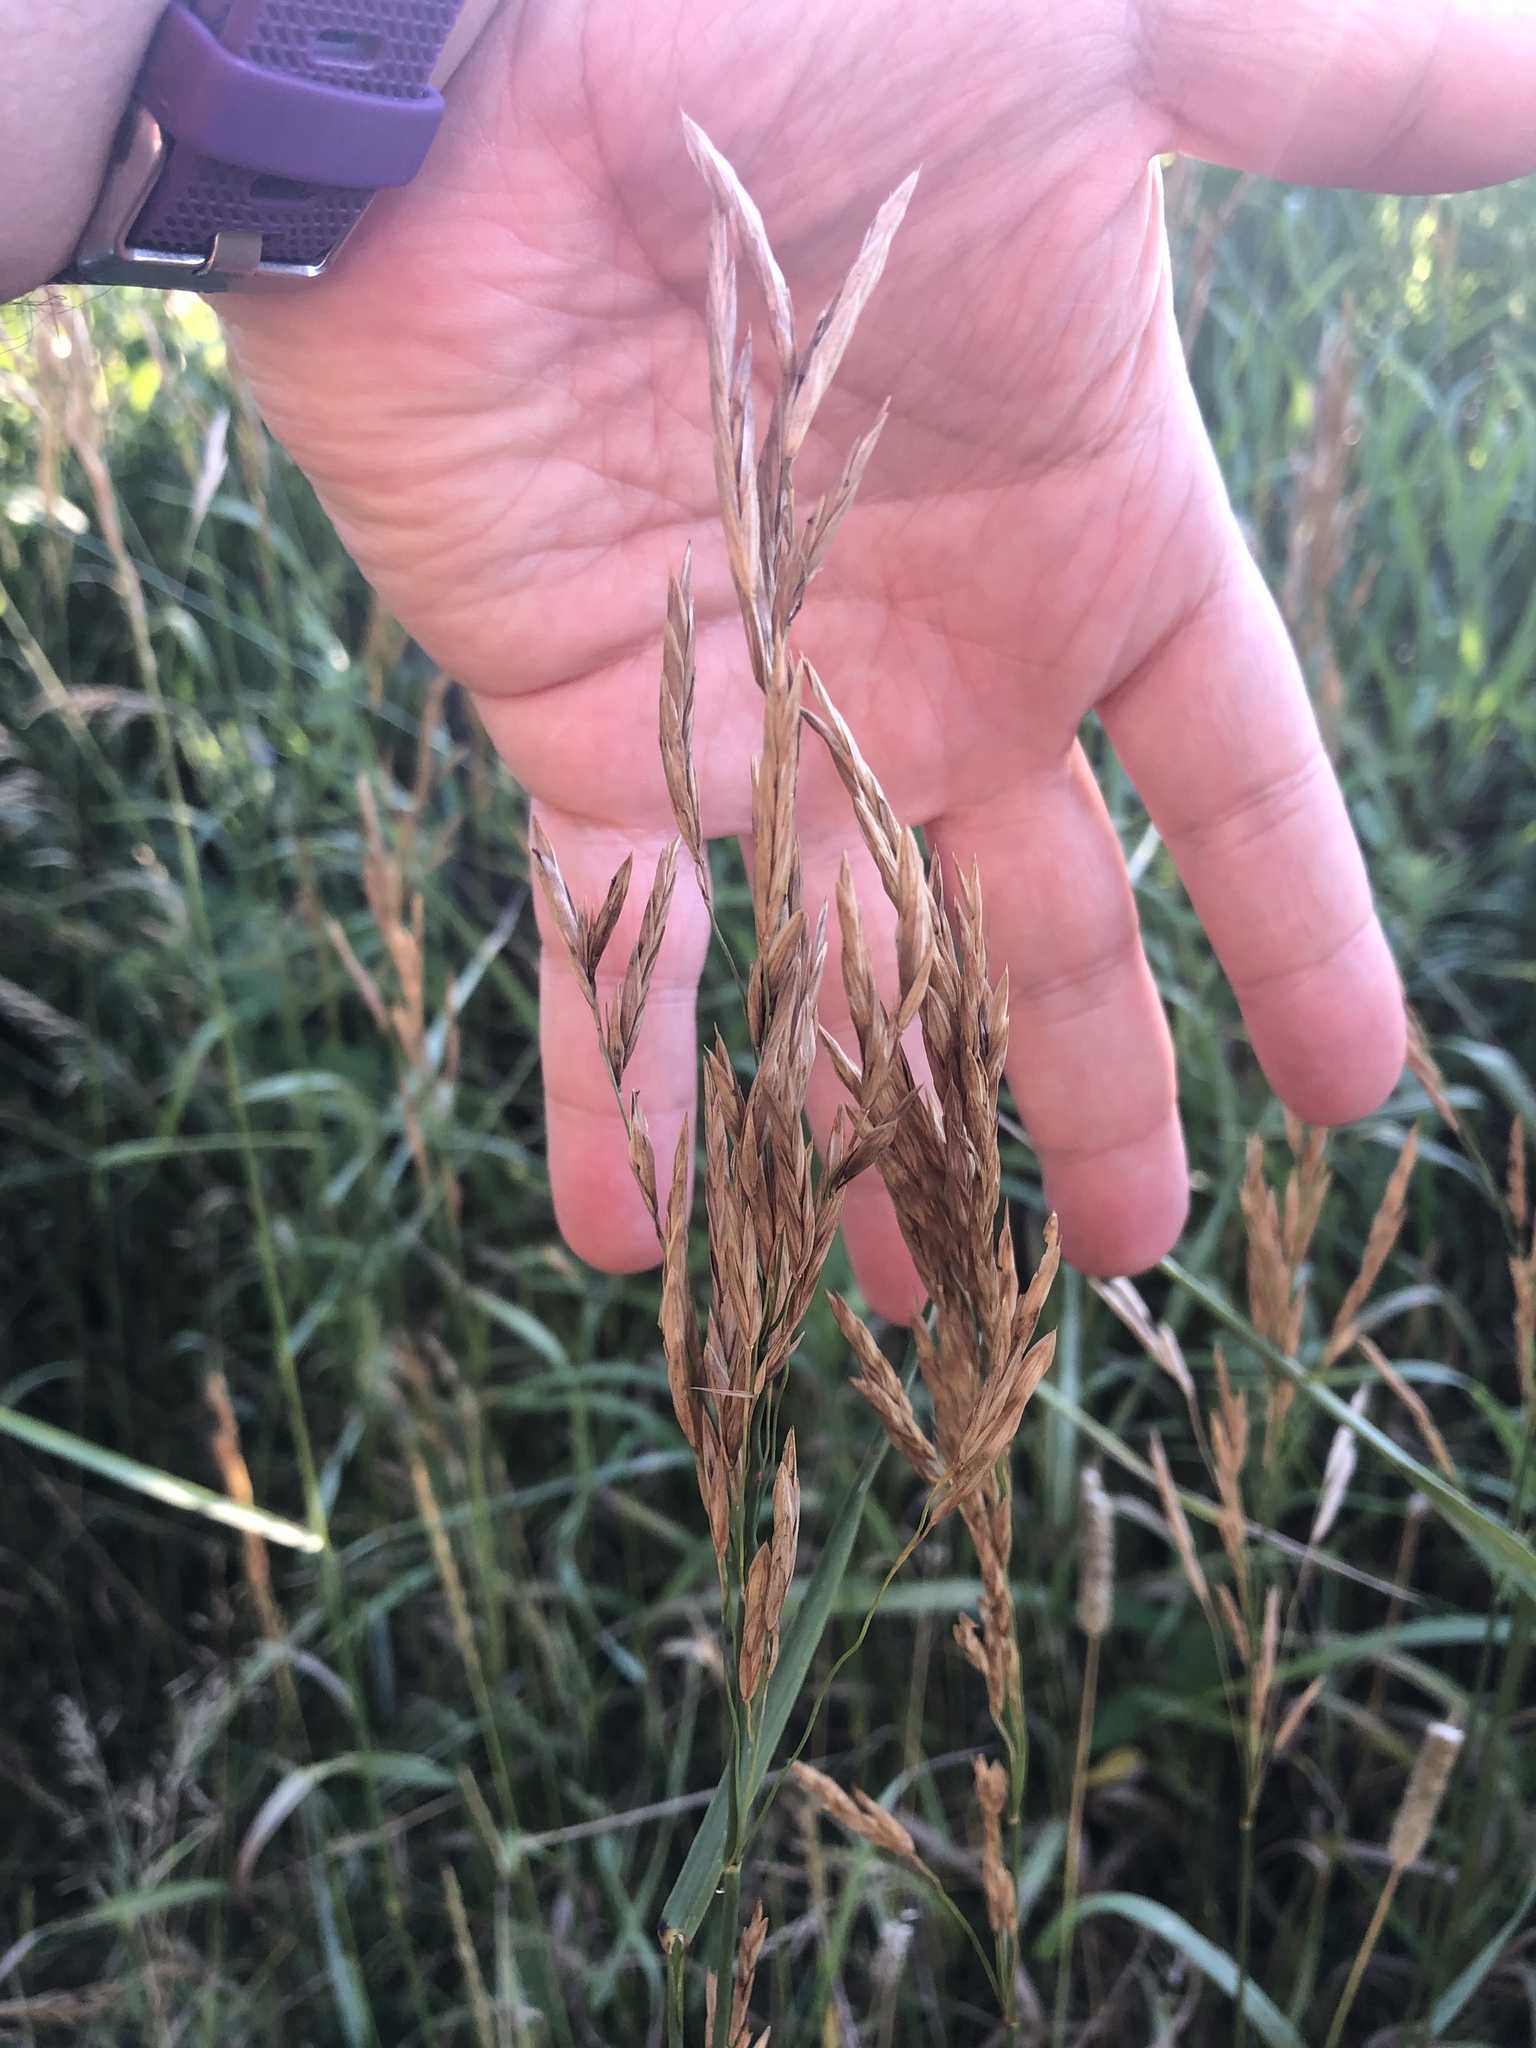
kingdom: Plantae
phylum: Tracheophyta
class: Liliopsida
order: Poales
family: Poaceae
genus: Bromus
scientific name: Bromus inermis
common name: Smooth brome
